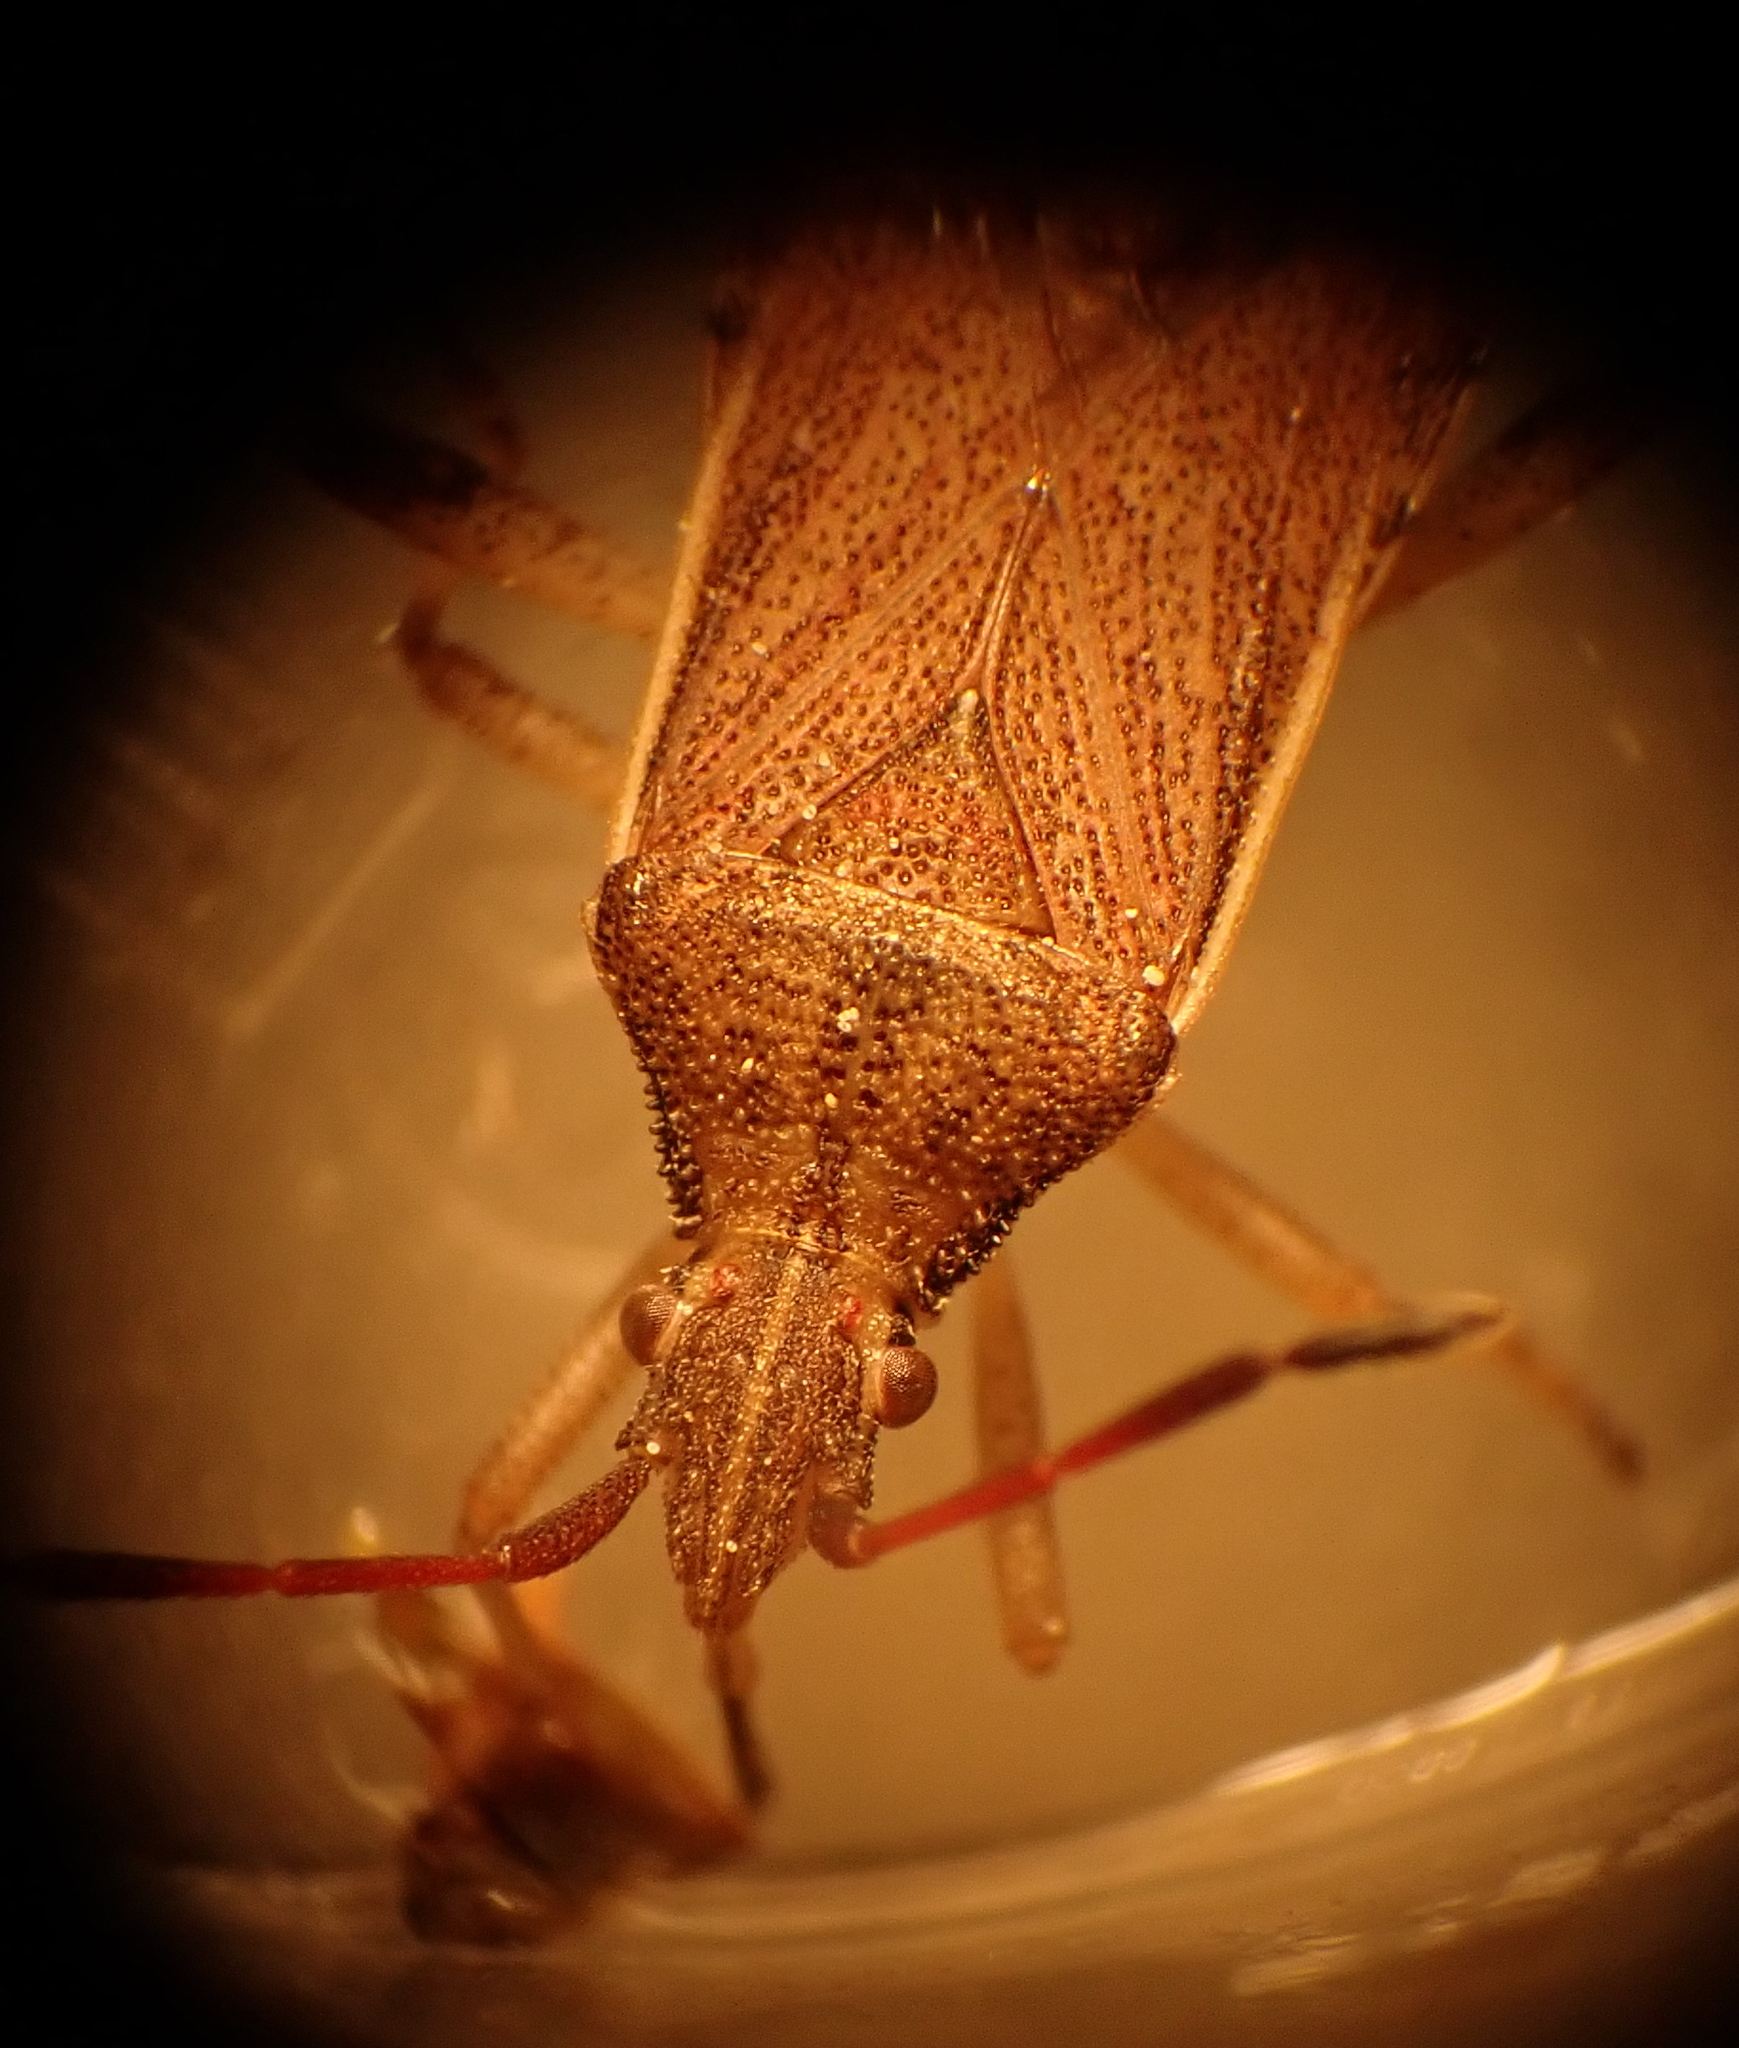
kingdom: Animalia
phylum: Arthropoda
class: Insecta
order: Hemiptera
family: Coreidae
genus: Ceraleptus
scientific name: Ceraleptus lividus
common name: Slender-horned leatherbug
